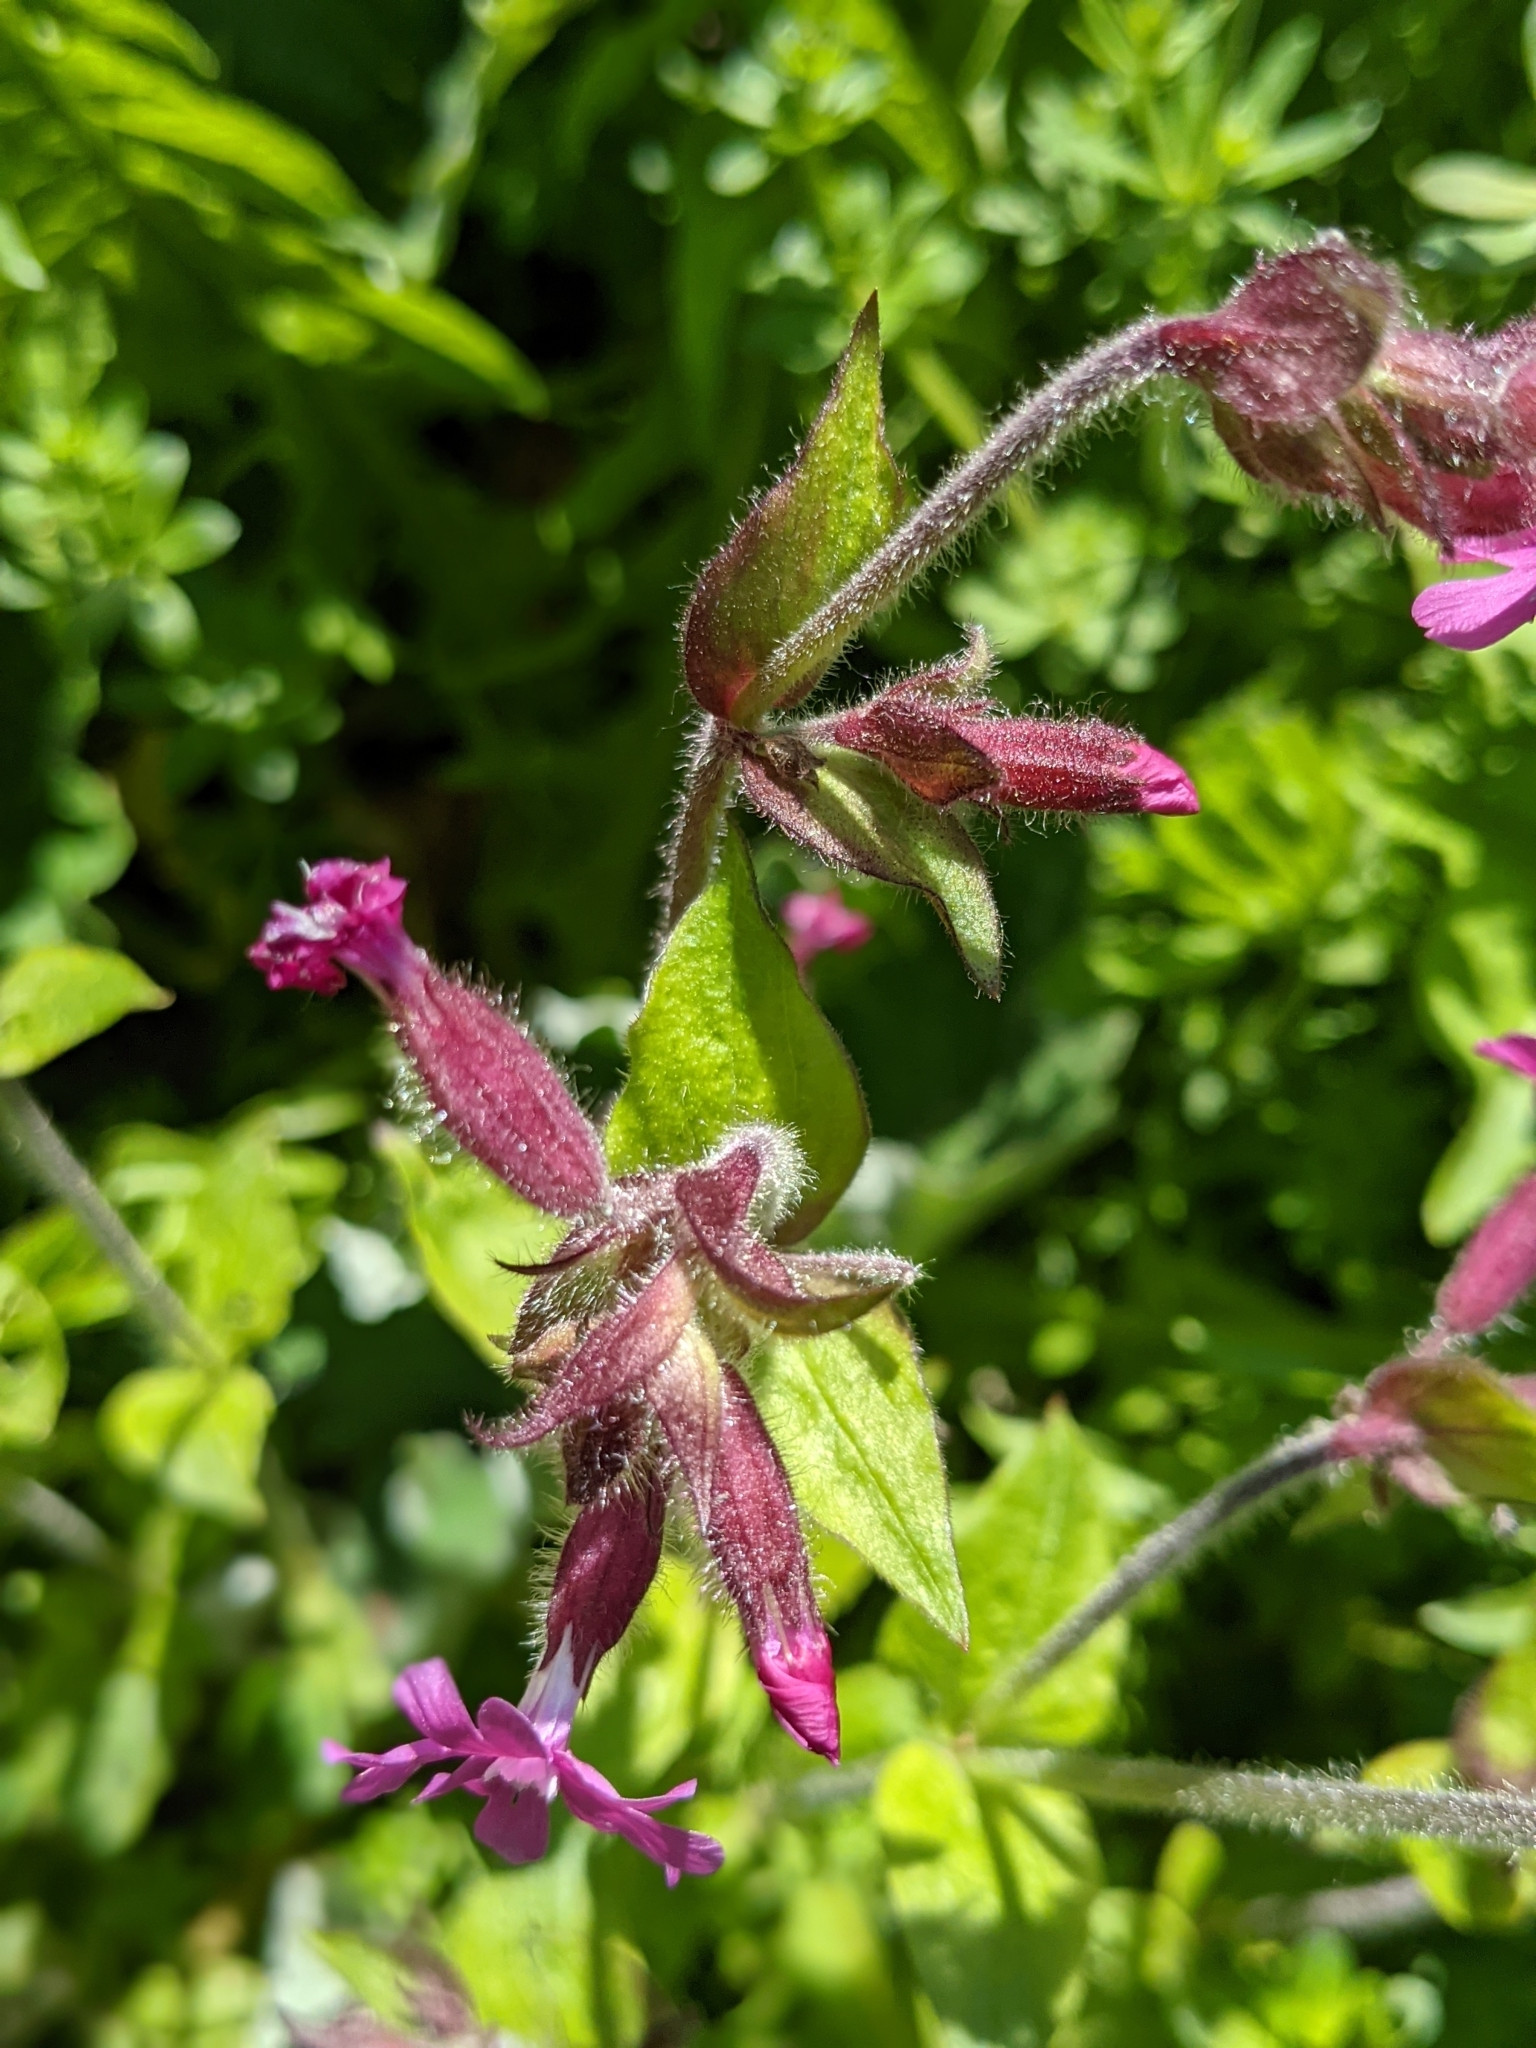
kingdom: Plantae
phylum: Tracheophyta
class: Magnoliopsida
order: Caryophyllales
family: Caryophyllaceae
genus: Silene
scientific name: Silene dioica
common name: Red campion
